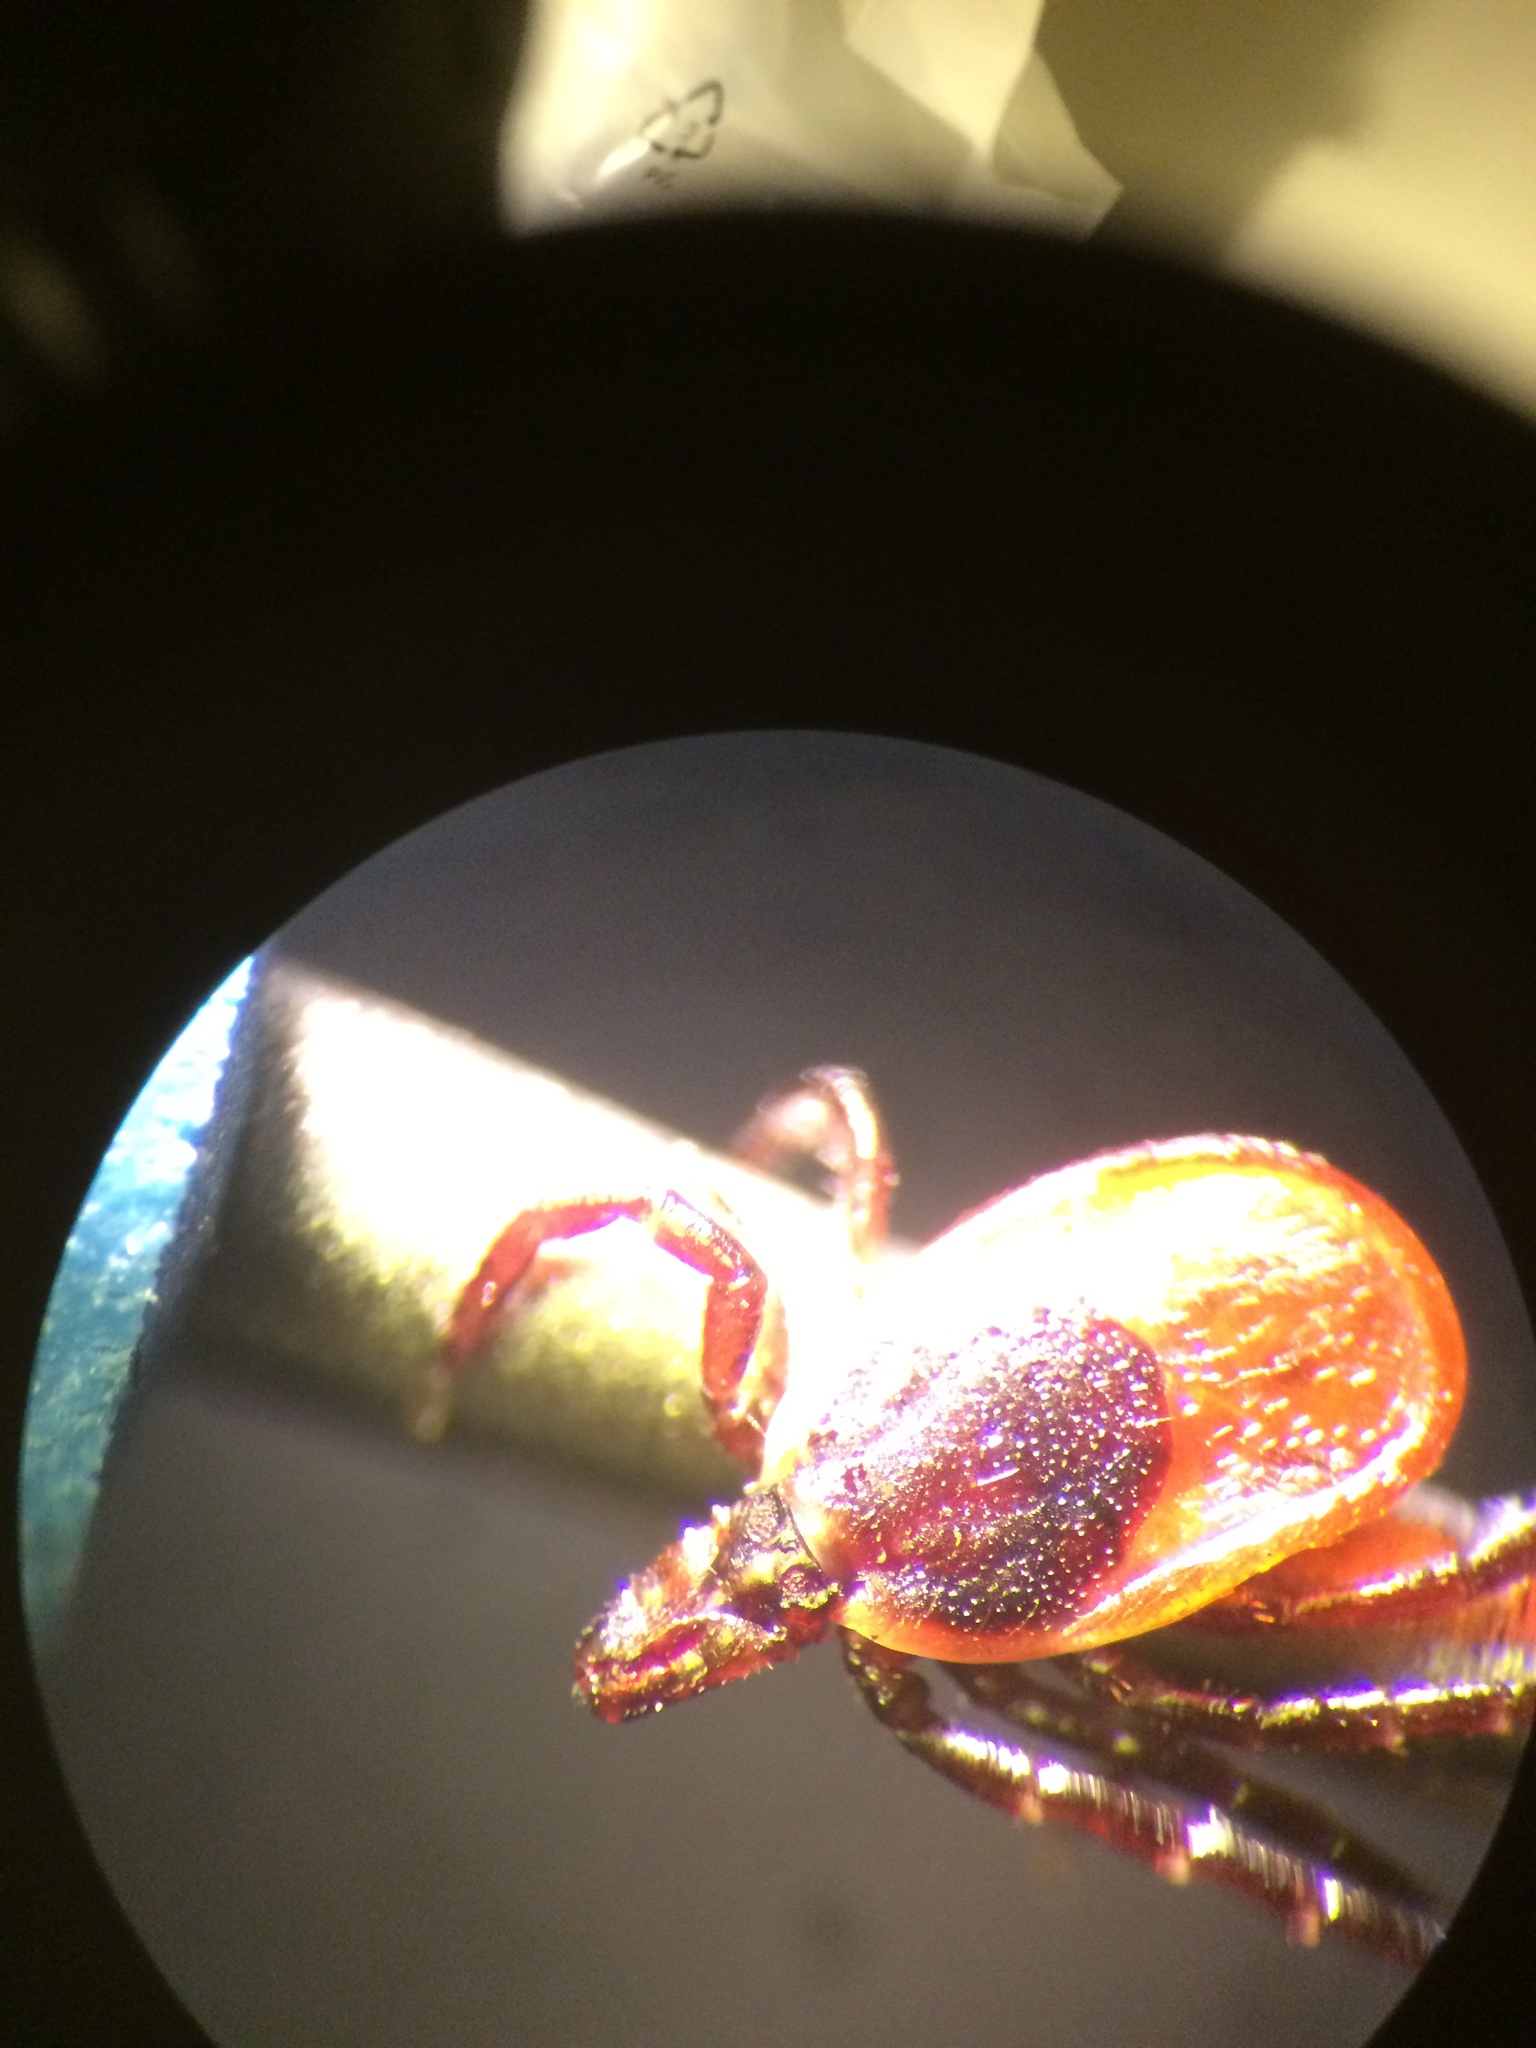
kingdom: Animalia
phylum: Arthropoda
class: Arachnida
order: Ixodida
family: Ixodidae
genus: Ixodes
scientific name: Ixodes scapularis
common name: Black legged tick
